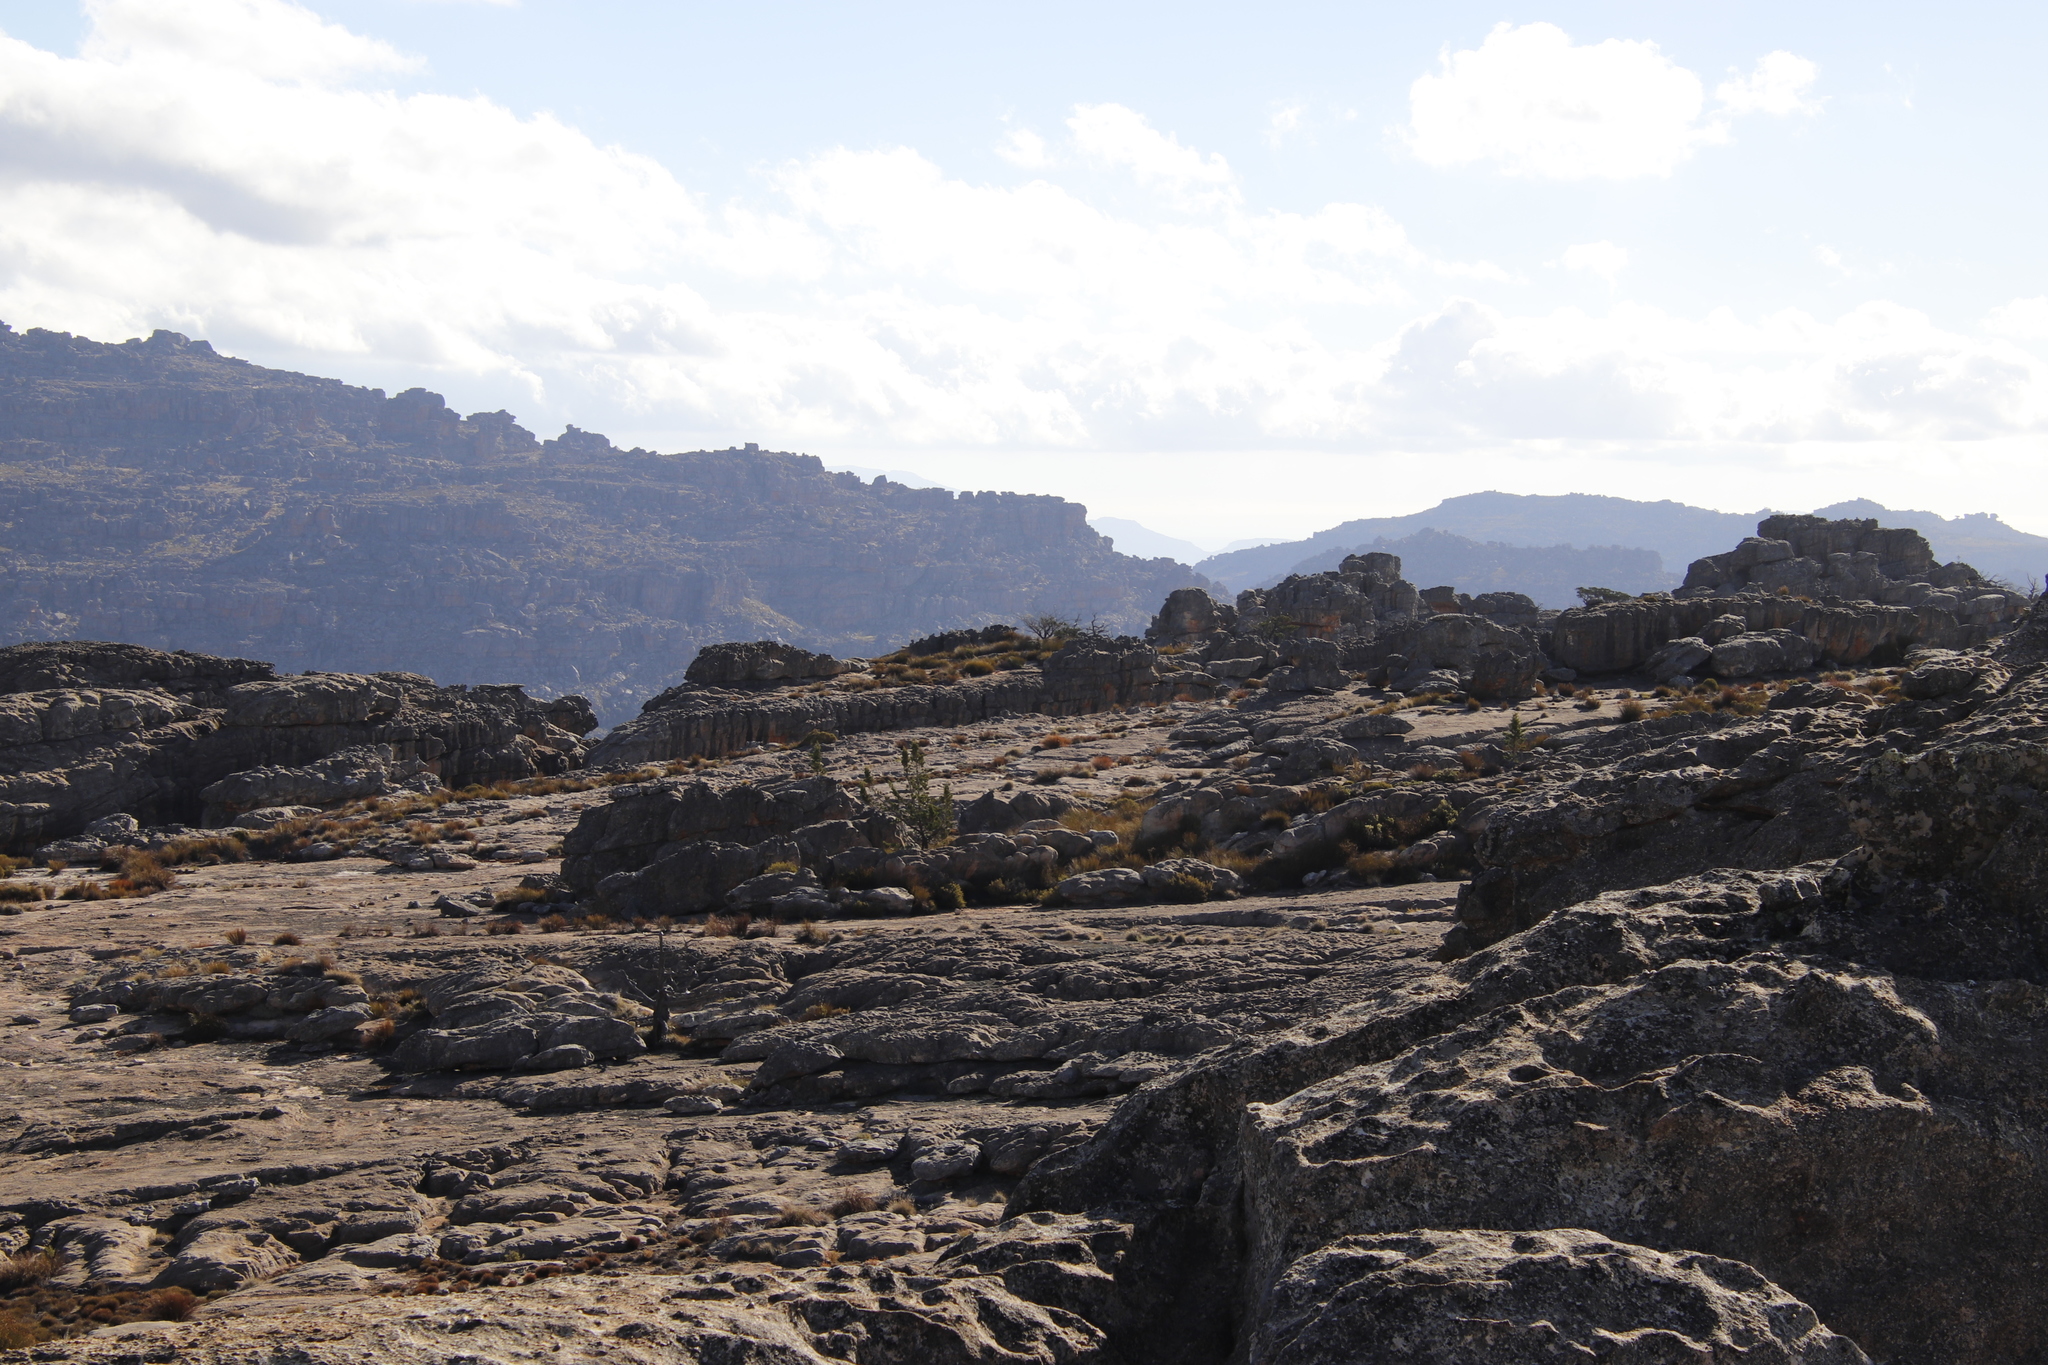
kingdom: Plantae
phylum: Tracheophyta
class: Pinopsida
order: Pinales
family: Cupressaceae
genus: Widdringtonia
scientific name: Widdringtonia nodiflora
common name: Cape cypress
